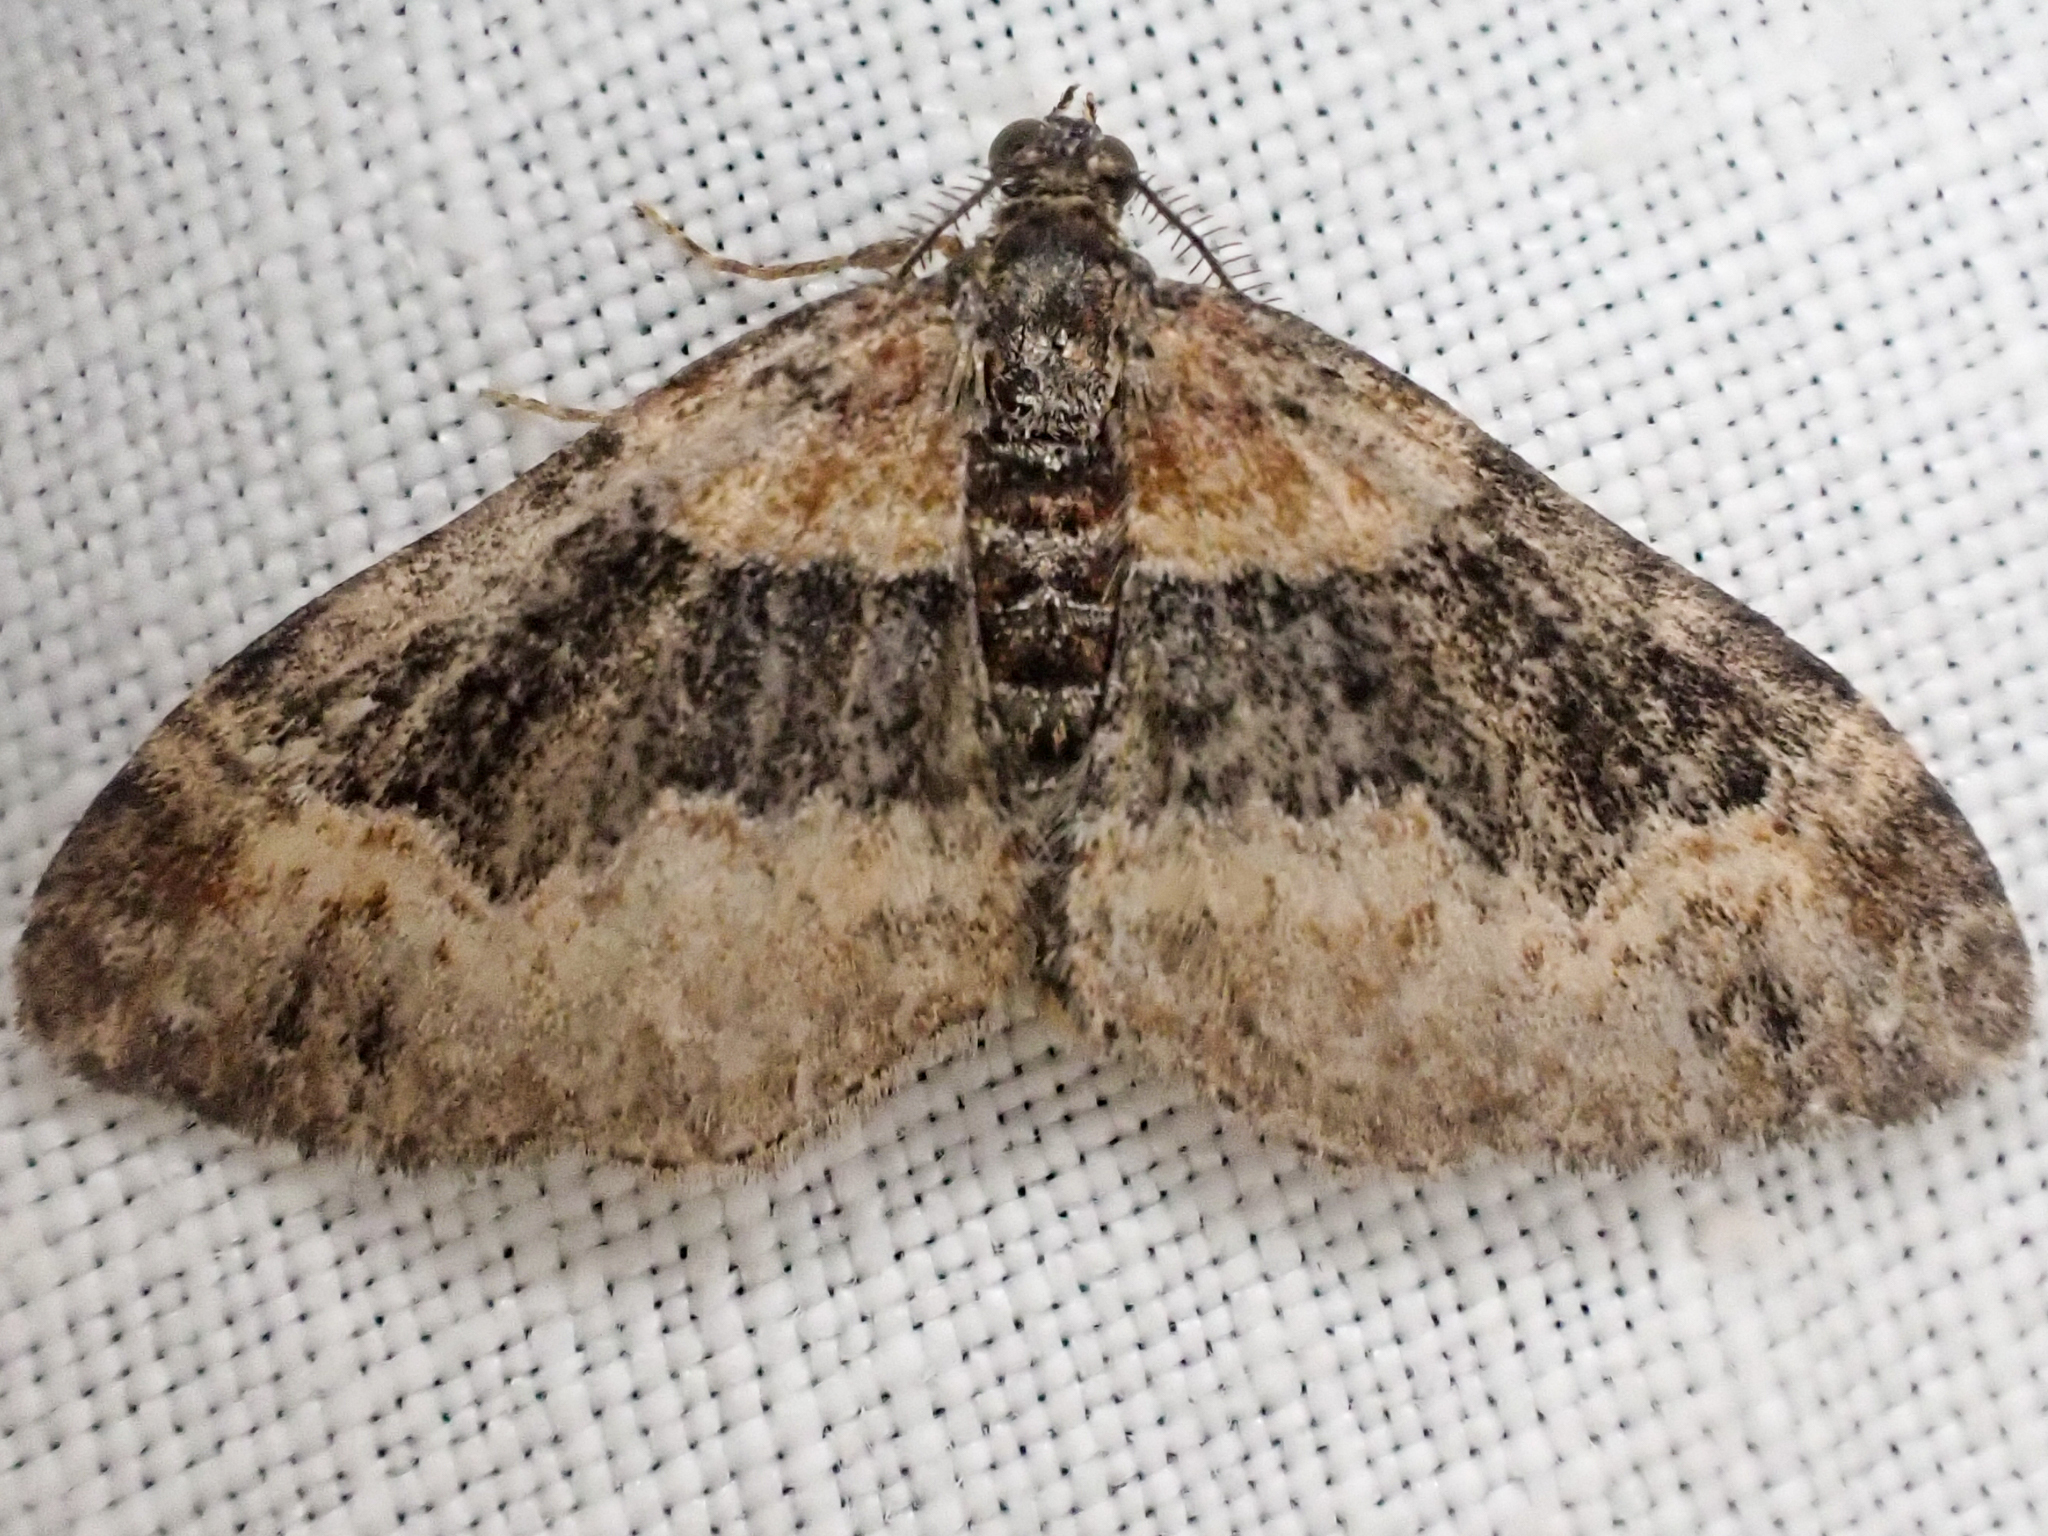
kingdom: Animalia
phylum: Arthropoda
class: Insecta
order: Lepidoptera
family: Geometridae
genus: Xanthorhoe
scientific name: Xanthorhoe ferrugata
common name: Dark-barred twin-spot carpet
